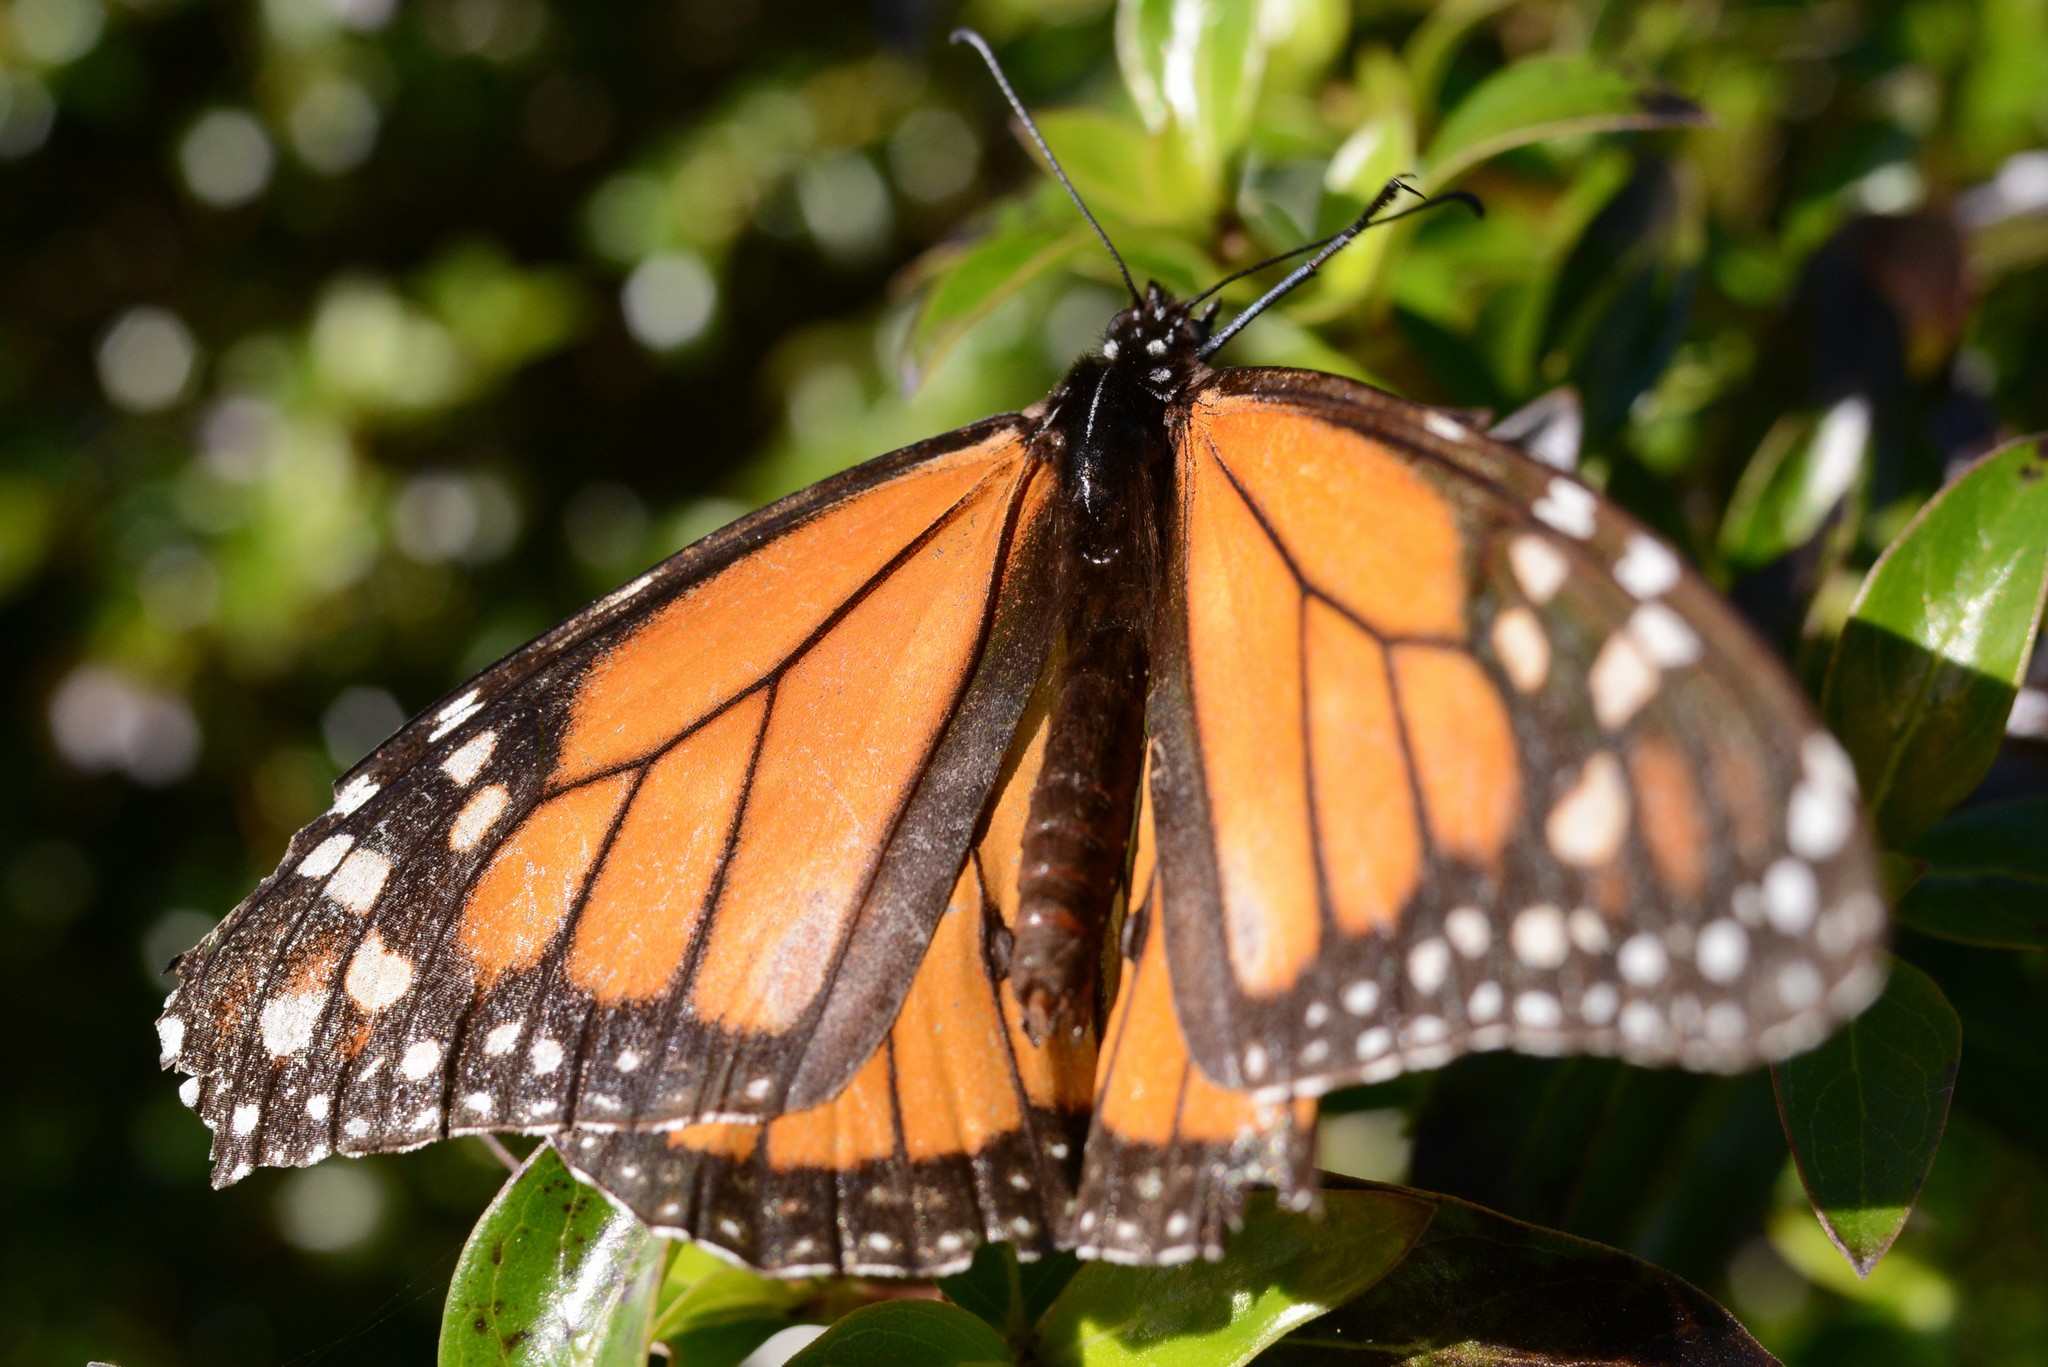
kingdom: Animalia
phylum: Arthropoda
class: Insecta
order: Lepidoptera
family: Nymphalidae
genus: Danaus
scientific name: Danaus plexippus
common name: Monarch
